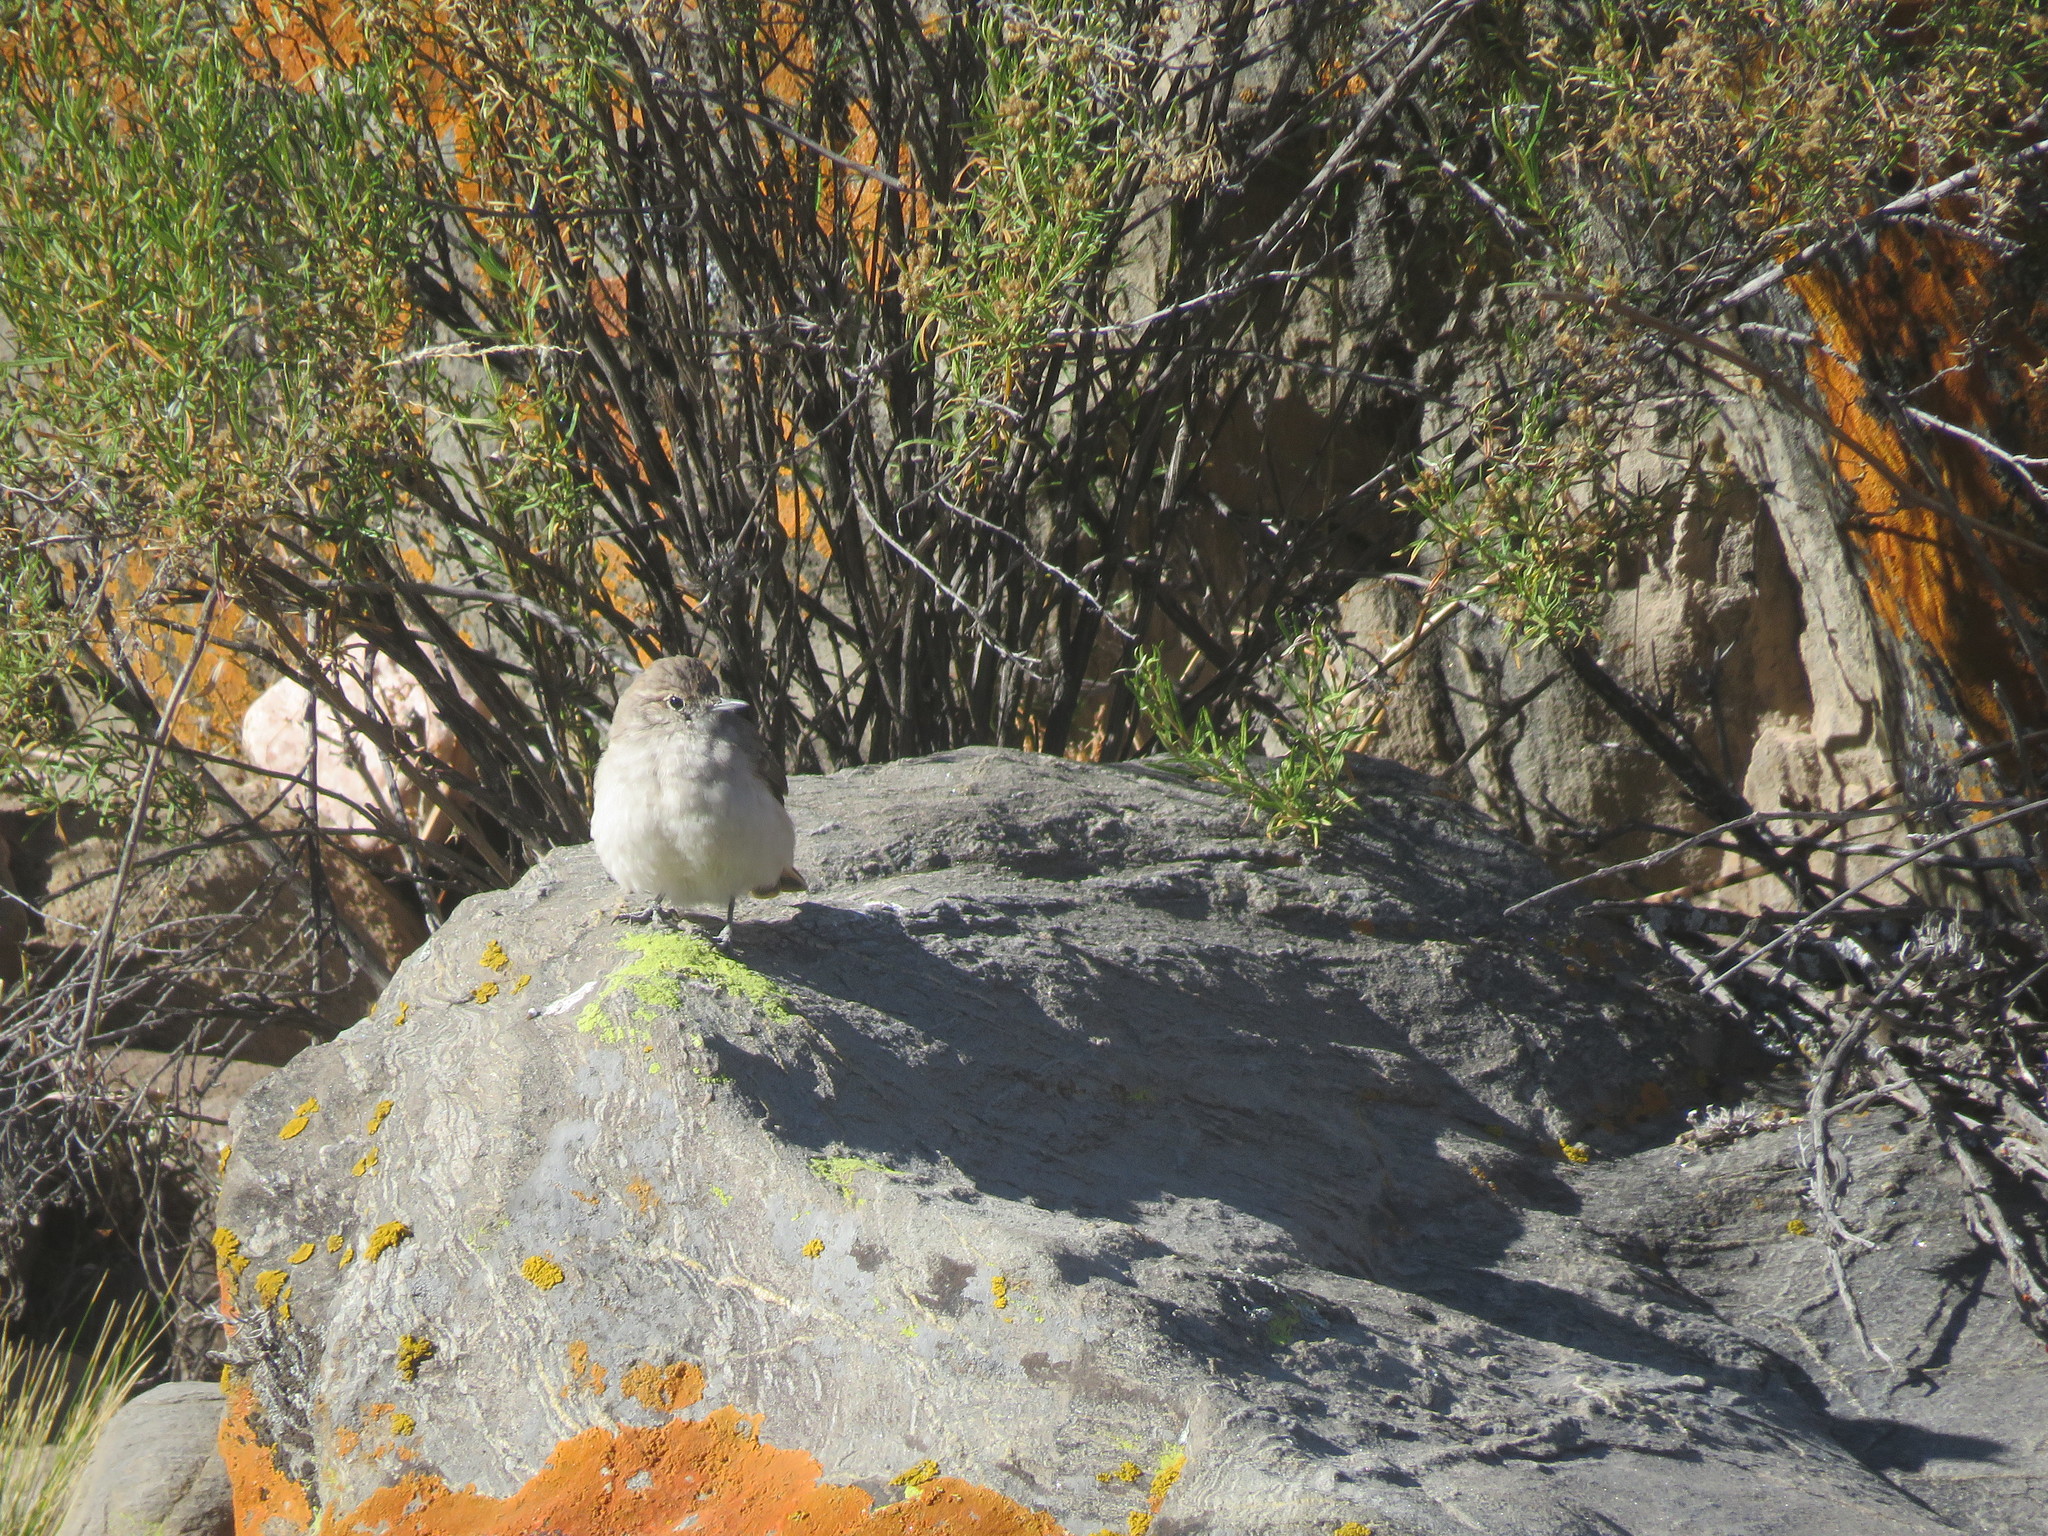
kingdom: Animalia
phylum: Chordata
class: Aves
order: Passeriformes
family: Furnariidae
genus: Geositta
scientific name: Geositta rufipennis
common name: Rufous-banded miner
